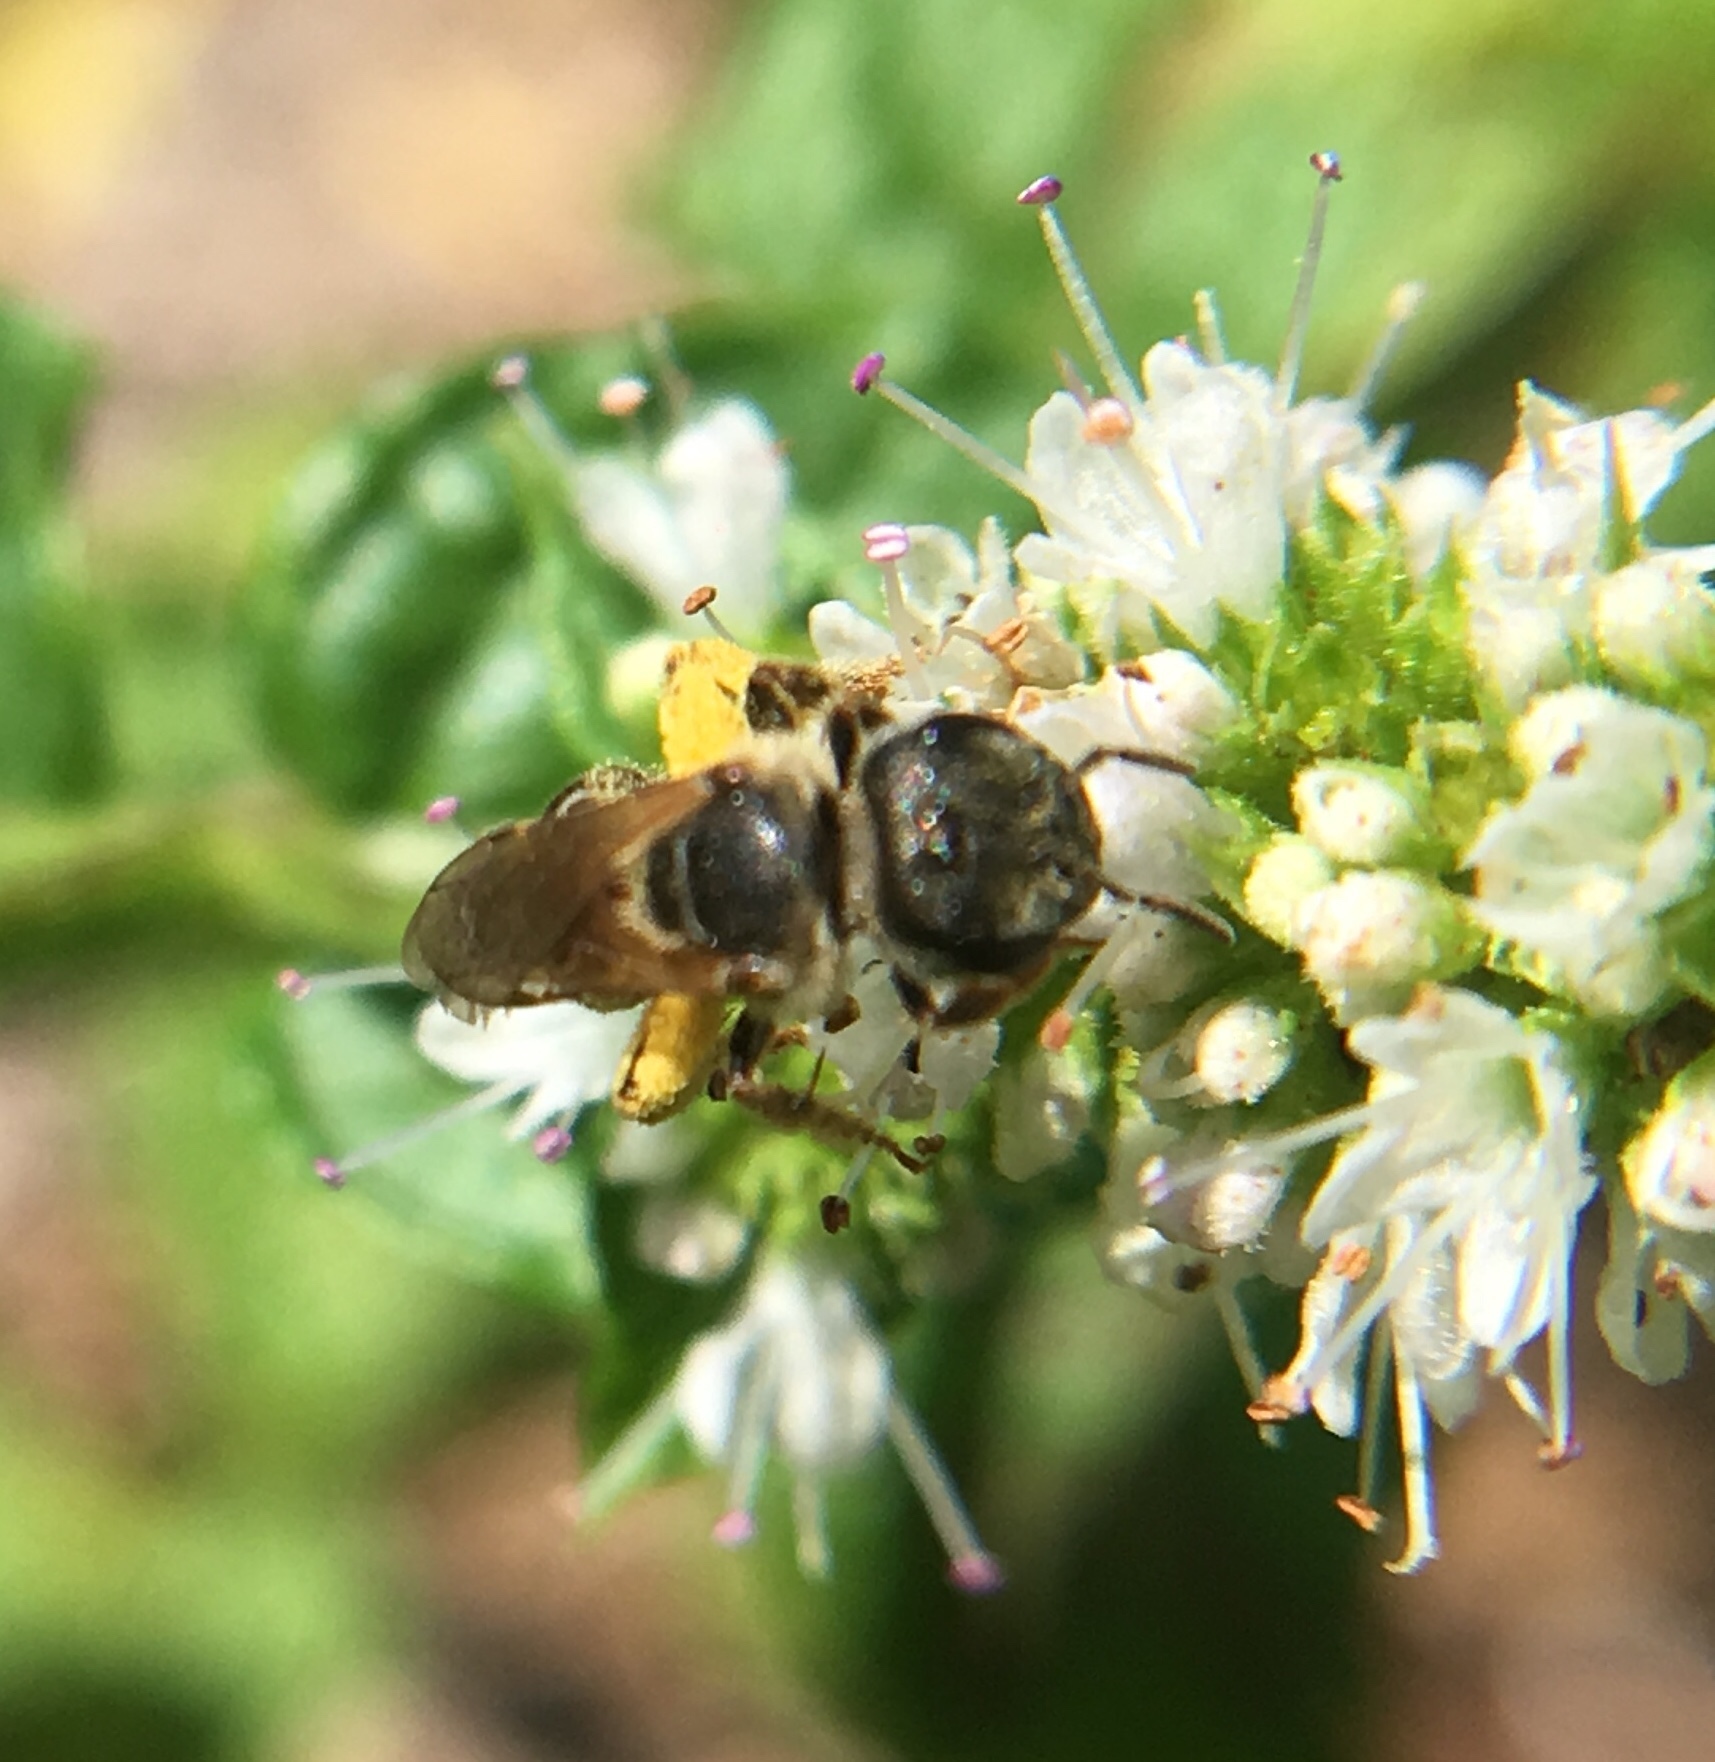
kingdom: Animalia
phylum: Arthropoda
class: Insecta
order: Hymenoptera
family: Halictidae
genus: Halictus
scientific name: Halictus ligatus
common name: Ligated furrow bee
